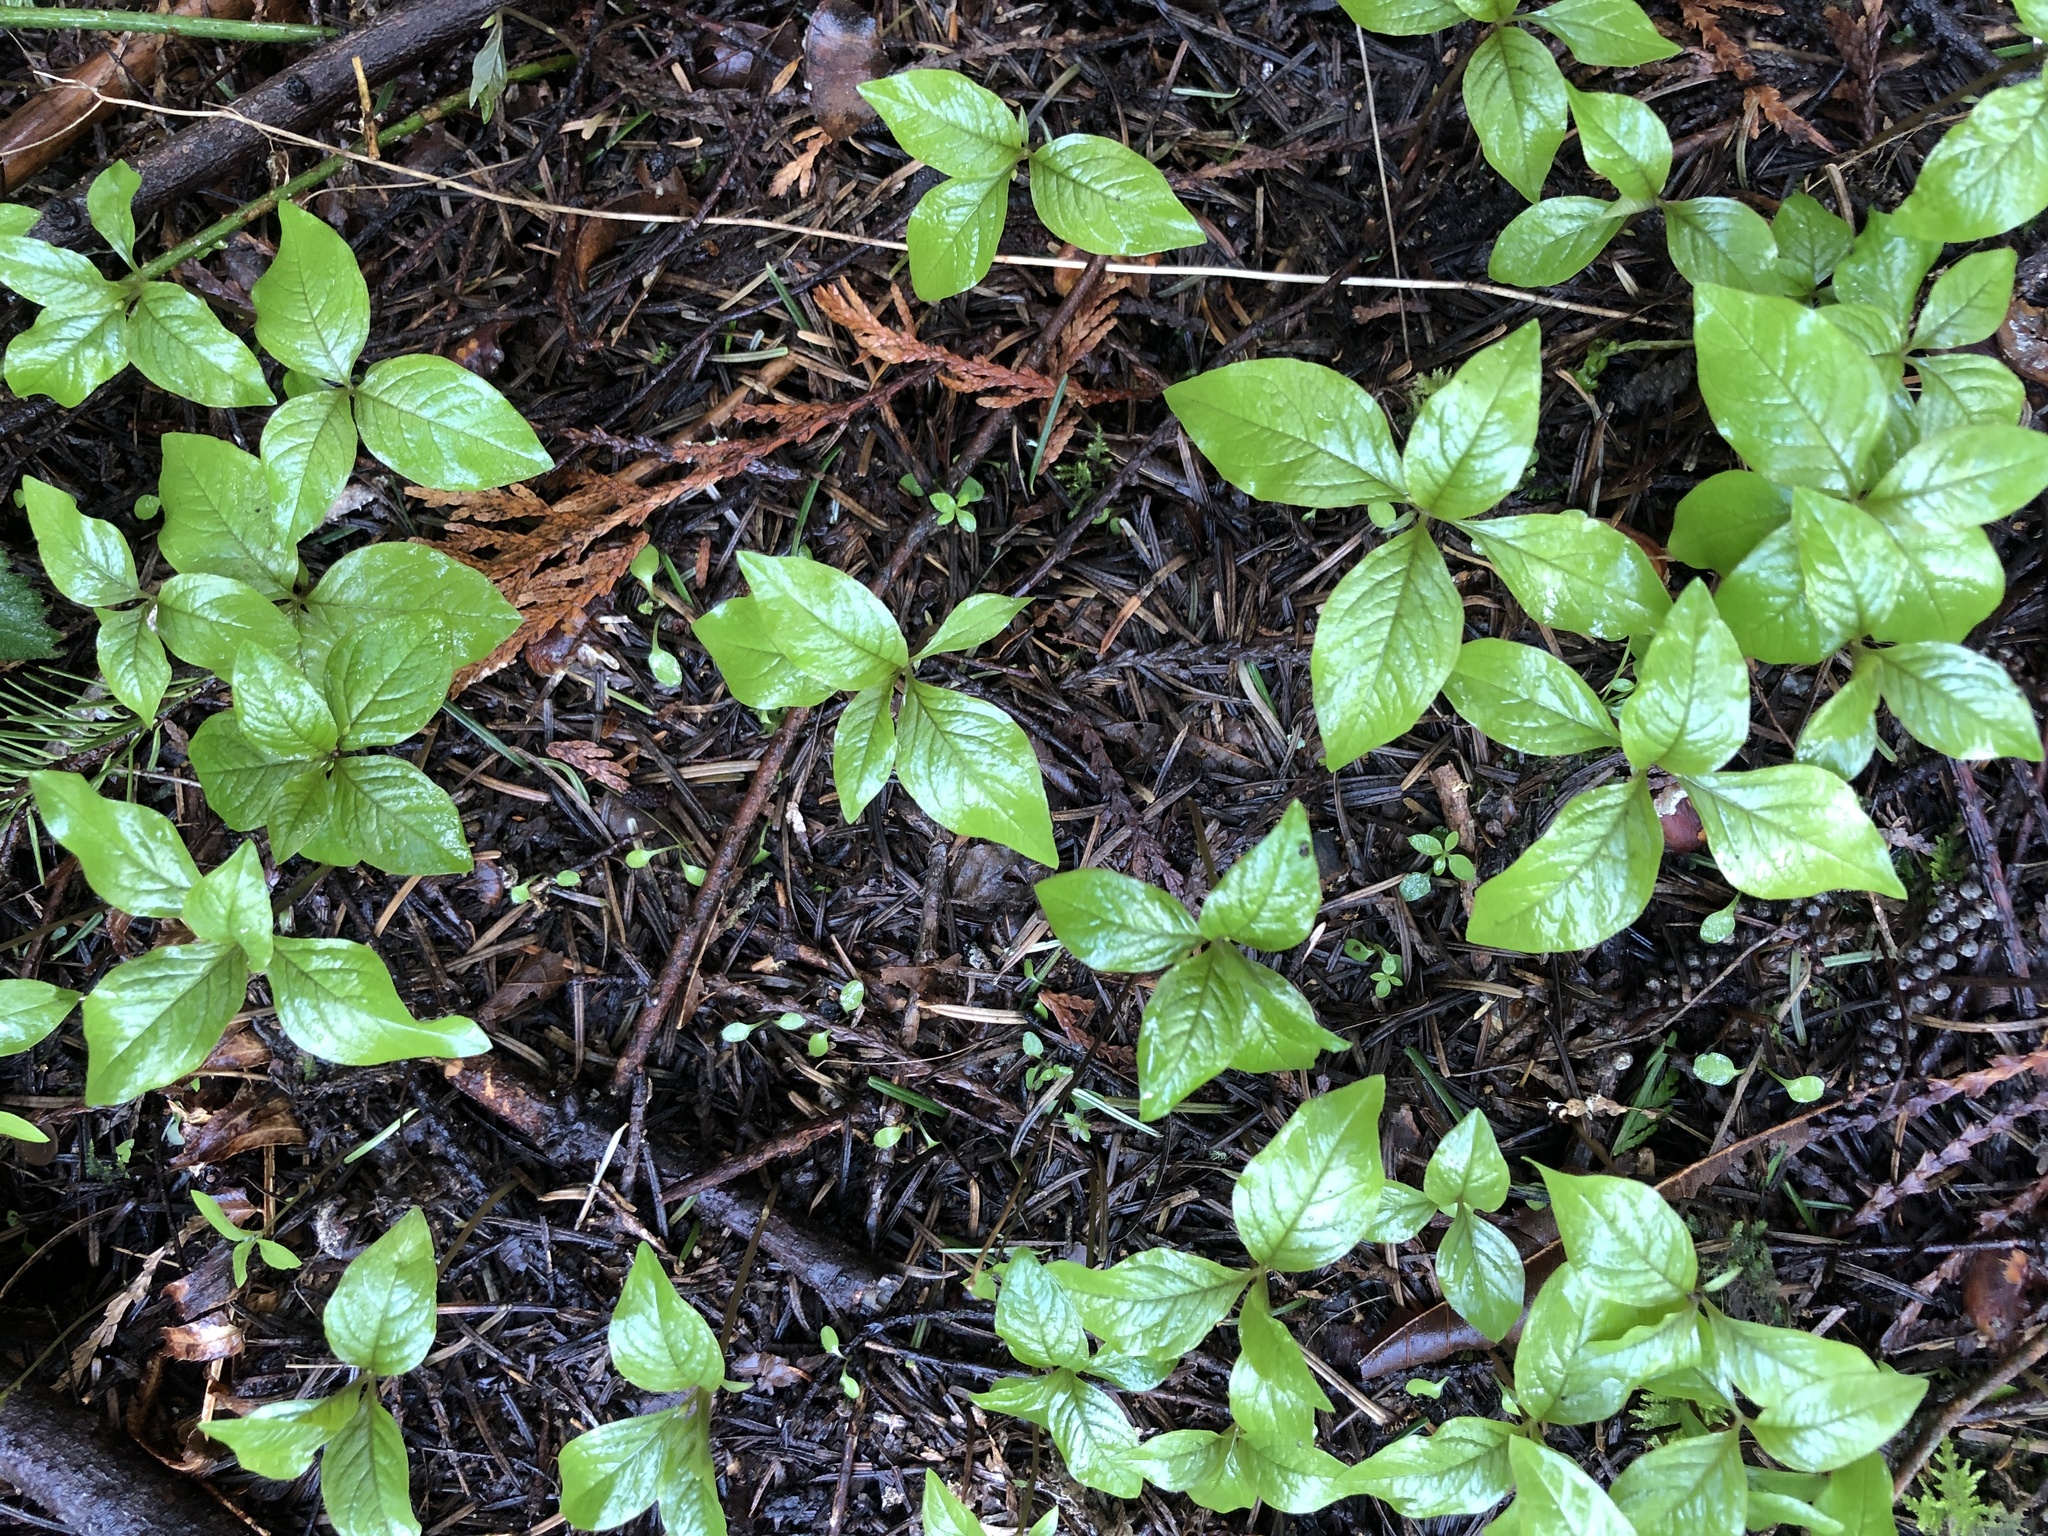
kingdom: Plantae
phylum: Tracheophyta
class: Magnoliopsida
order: Ericales
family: Primulaceae
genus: Lysimachia
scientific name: Lysimachia latifolia
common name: Pacific starflower
